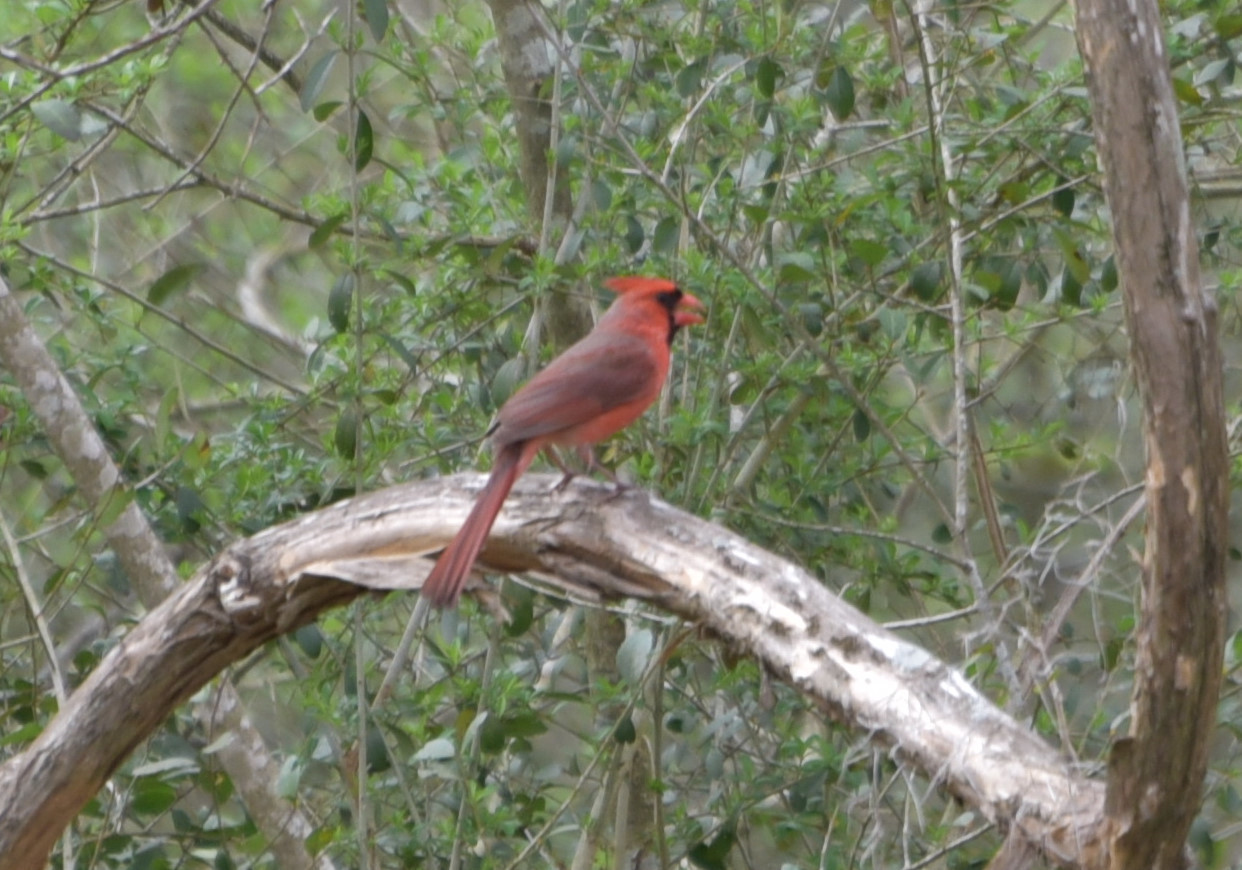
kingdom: Animalia
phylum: Chordata
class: Aves
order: Passeriformes
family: Cardinalidae
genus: Cardinalis
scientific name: Cardinalis cardinalis
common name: Northern cardinal
